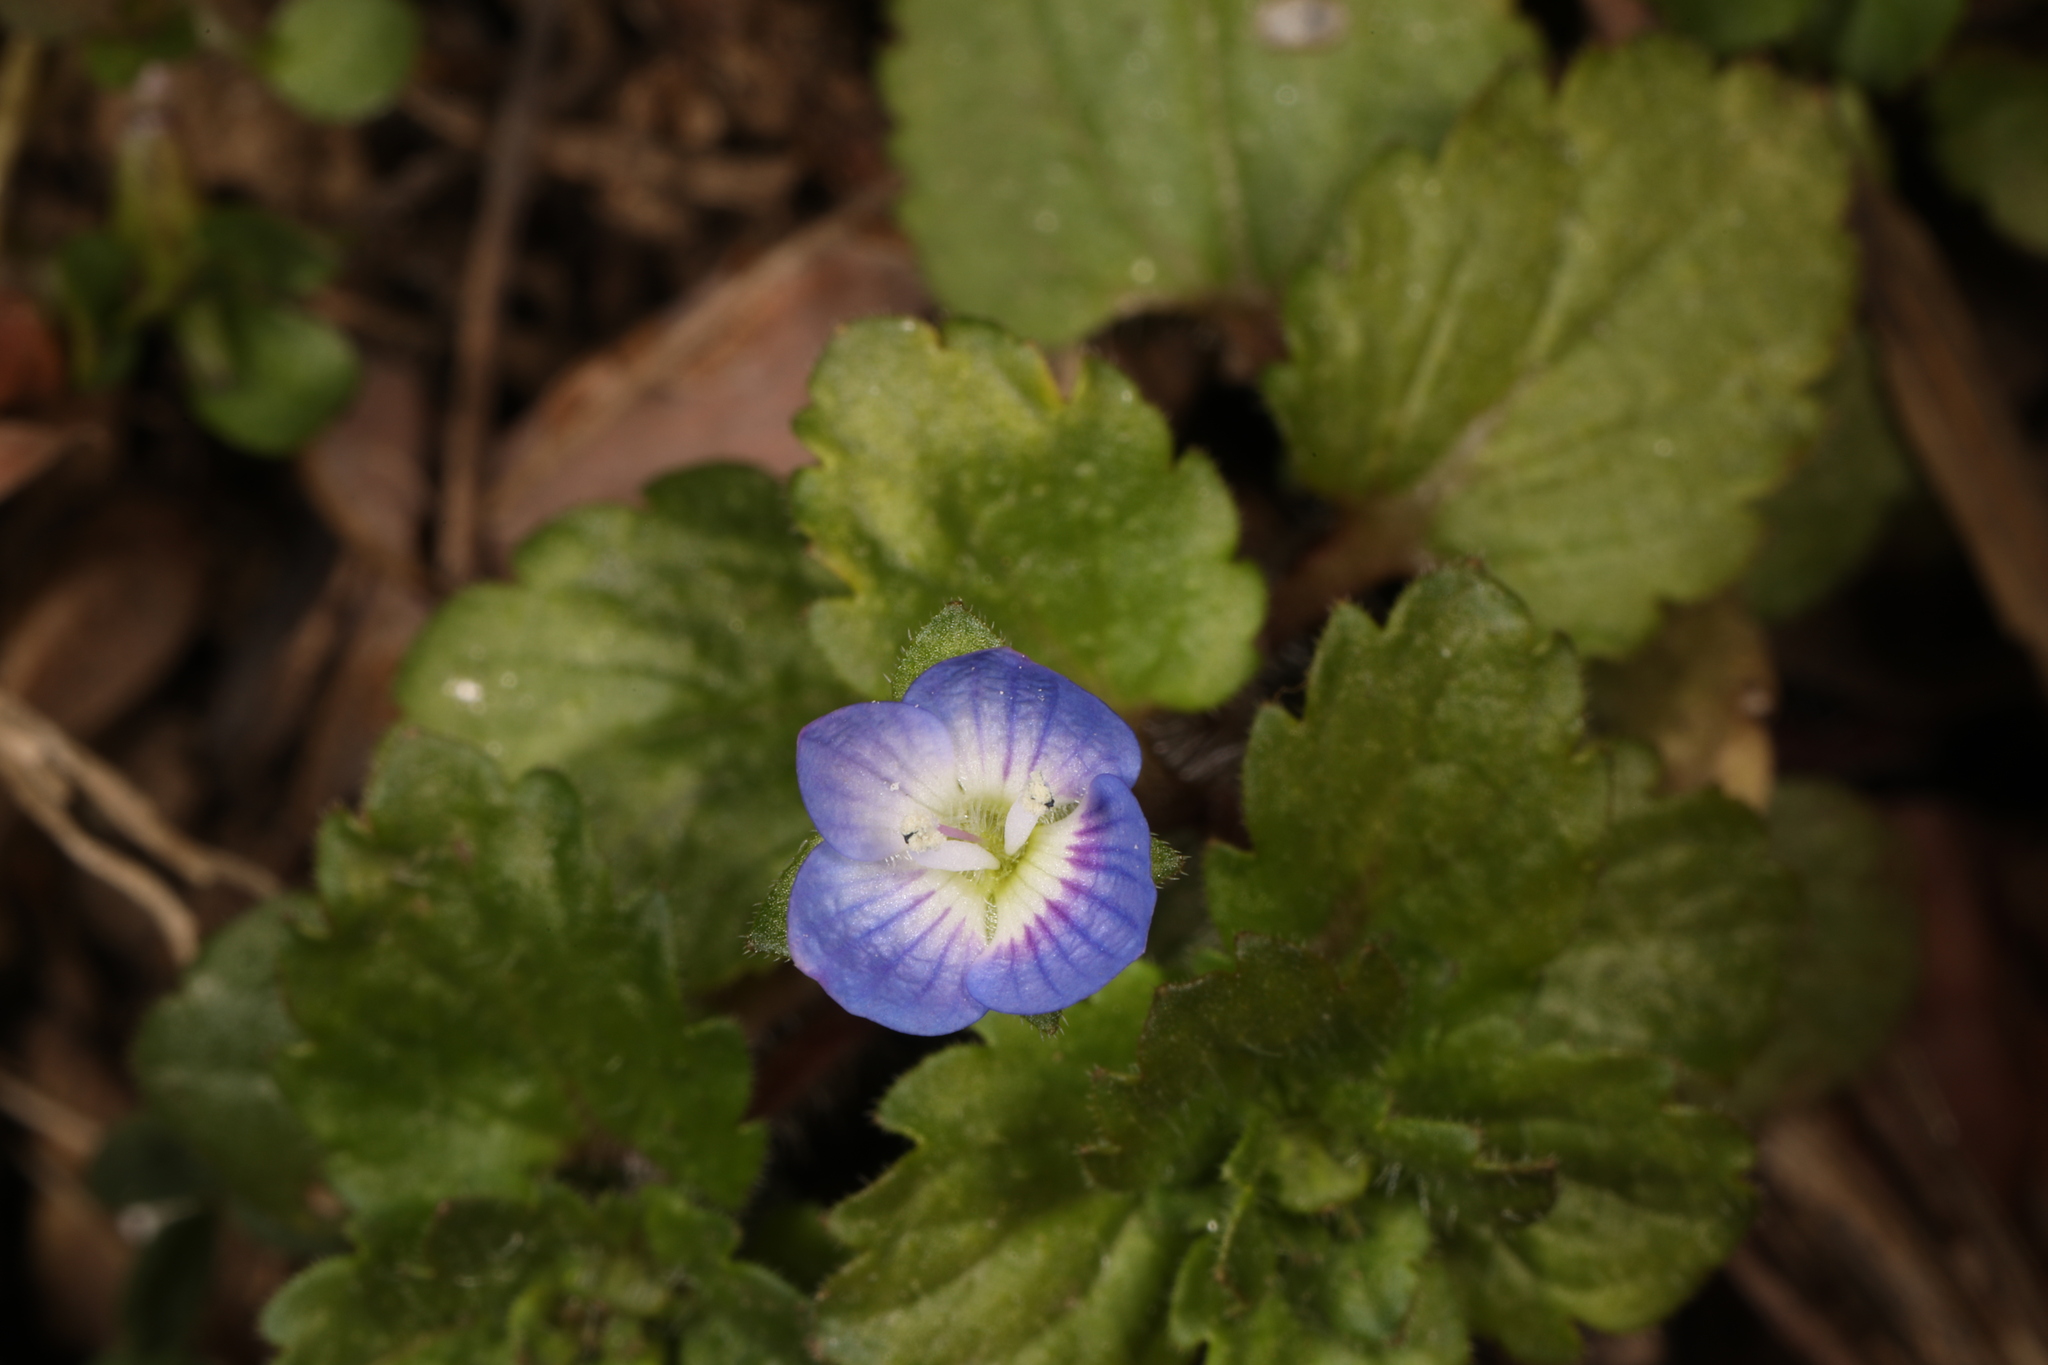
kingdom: Plantae
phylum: Tracheophyta
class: Magnoliopsida
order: Lamiales
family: Plantaginaceae
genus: Veronica
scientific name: Veronica persica
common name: Common field-speedwell
